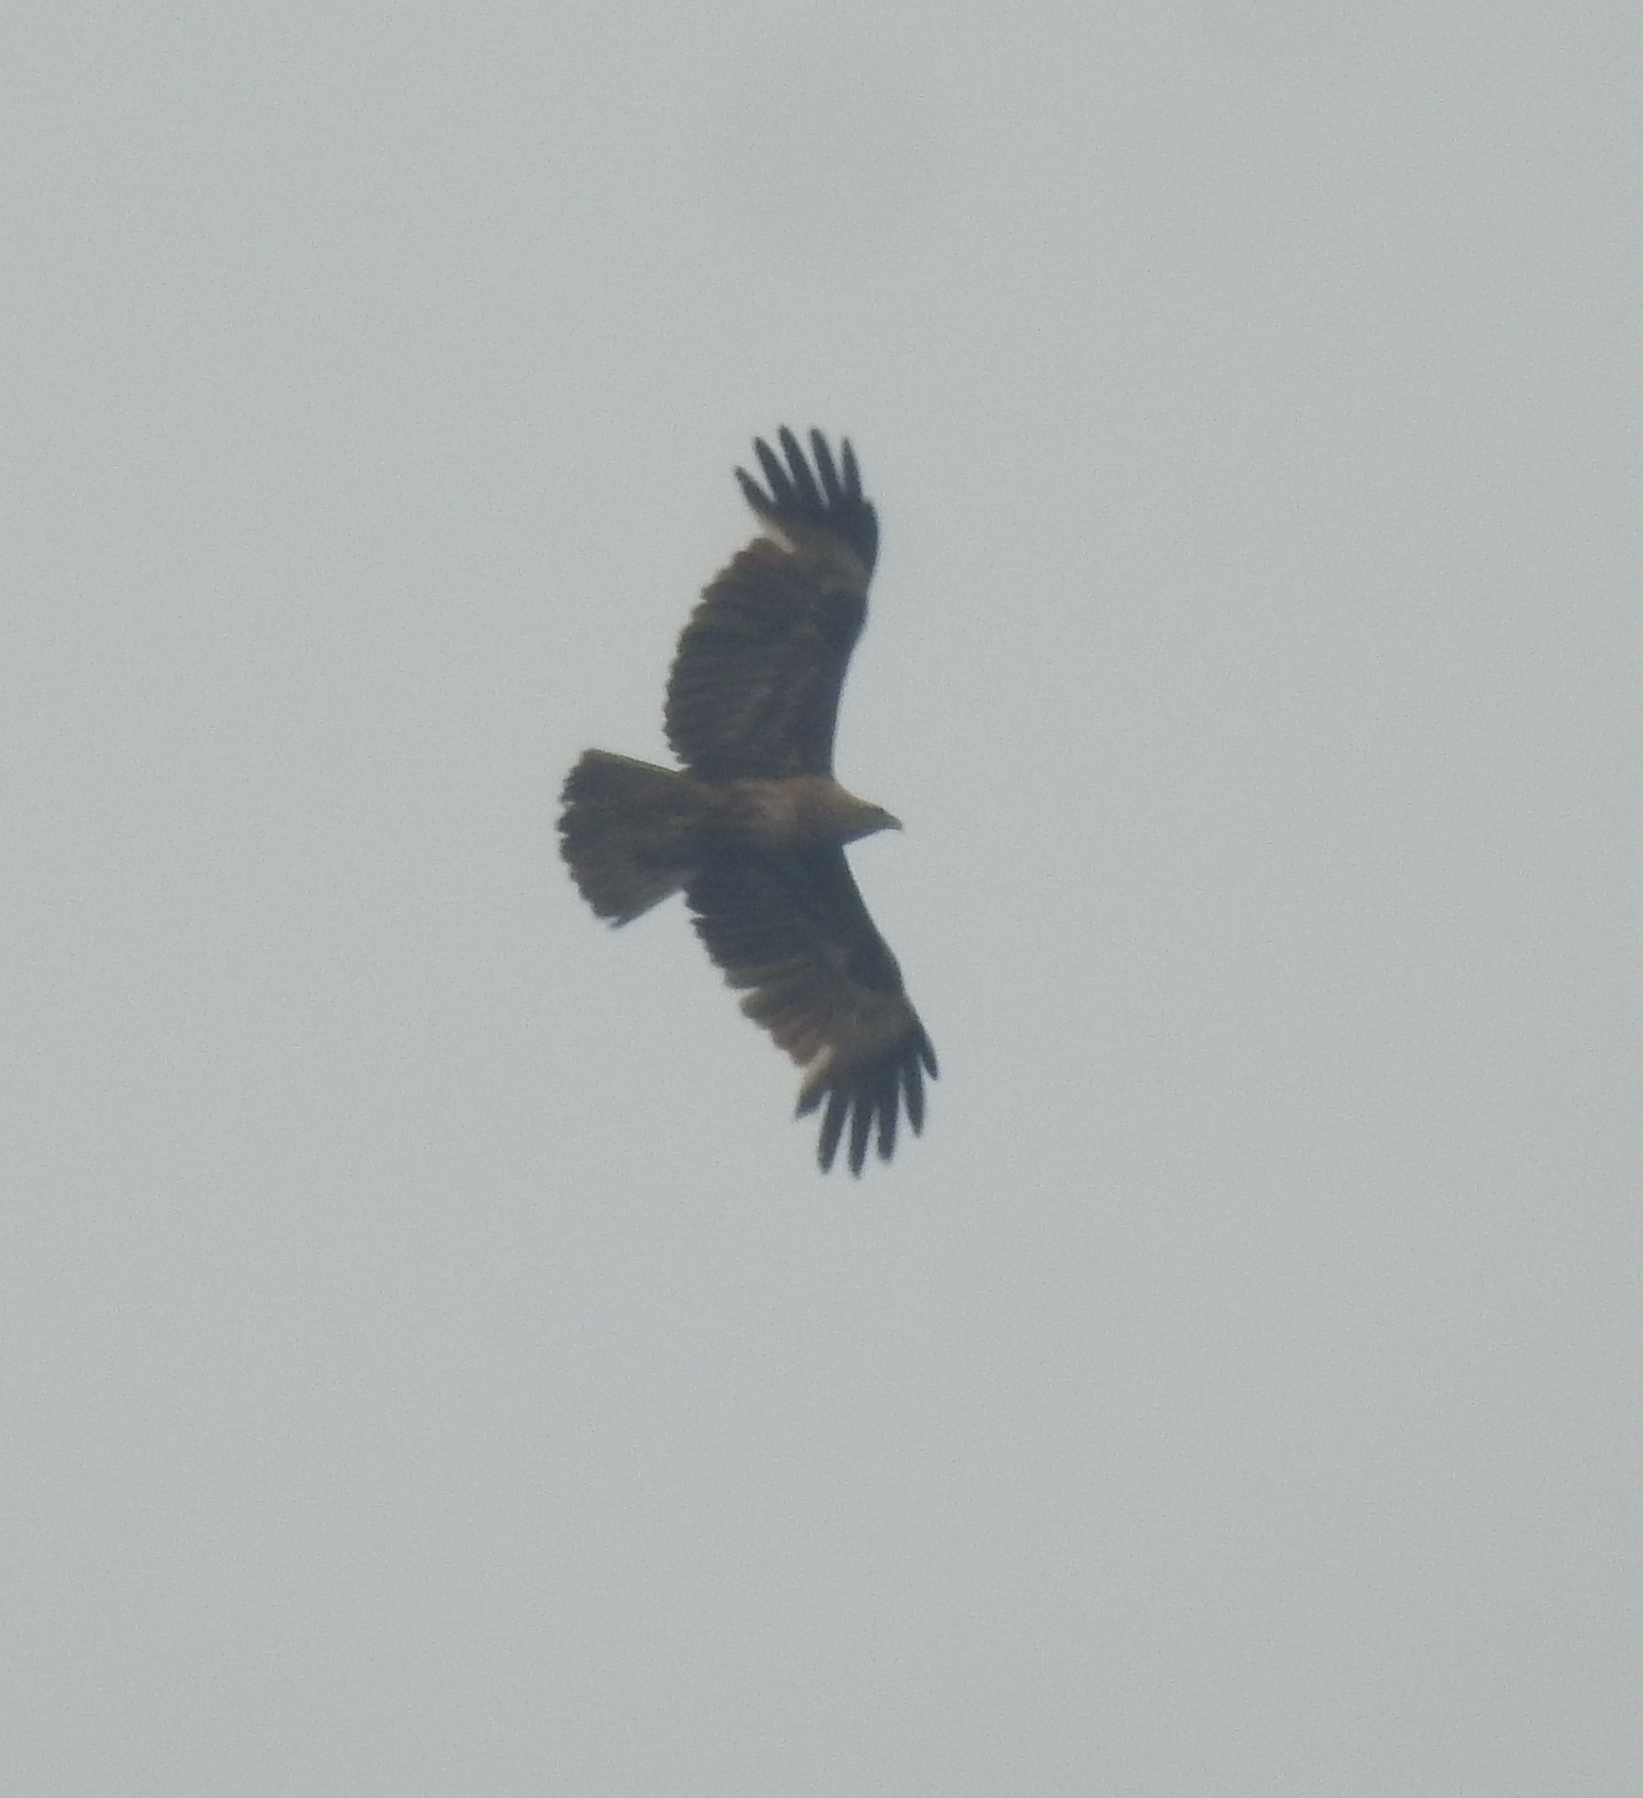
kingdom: Animalia
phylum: Chordata
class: Aves
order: Accipitriformes
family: Accipitridae
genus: Haliastur
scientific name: Haliastur indus
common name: Brahminy kite
